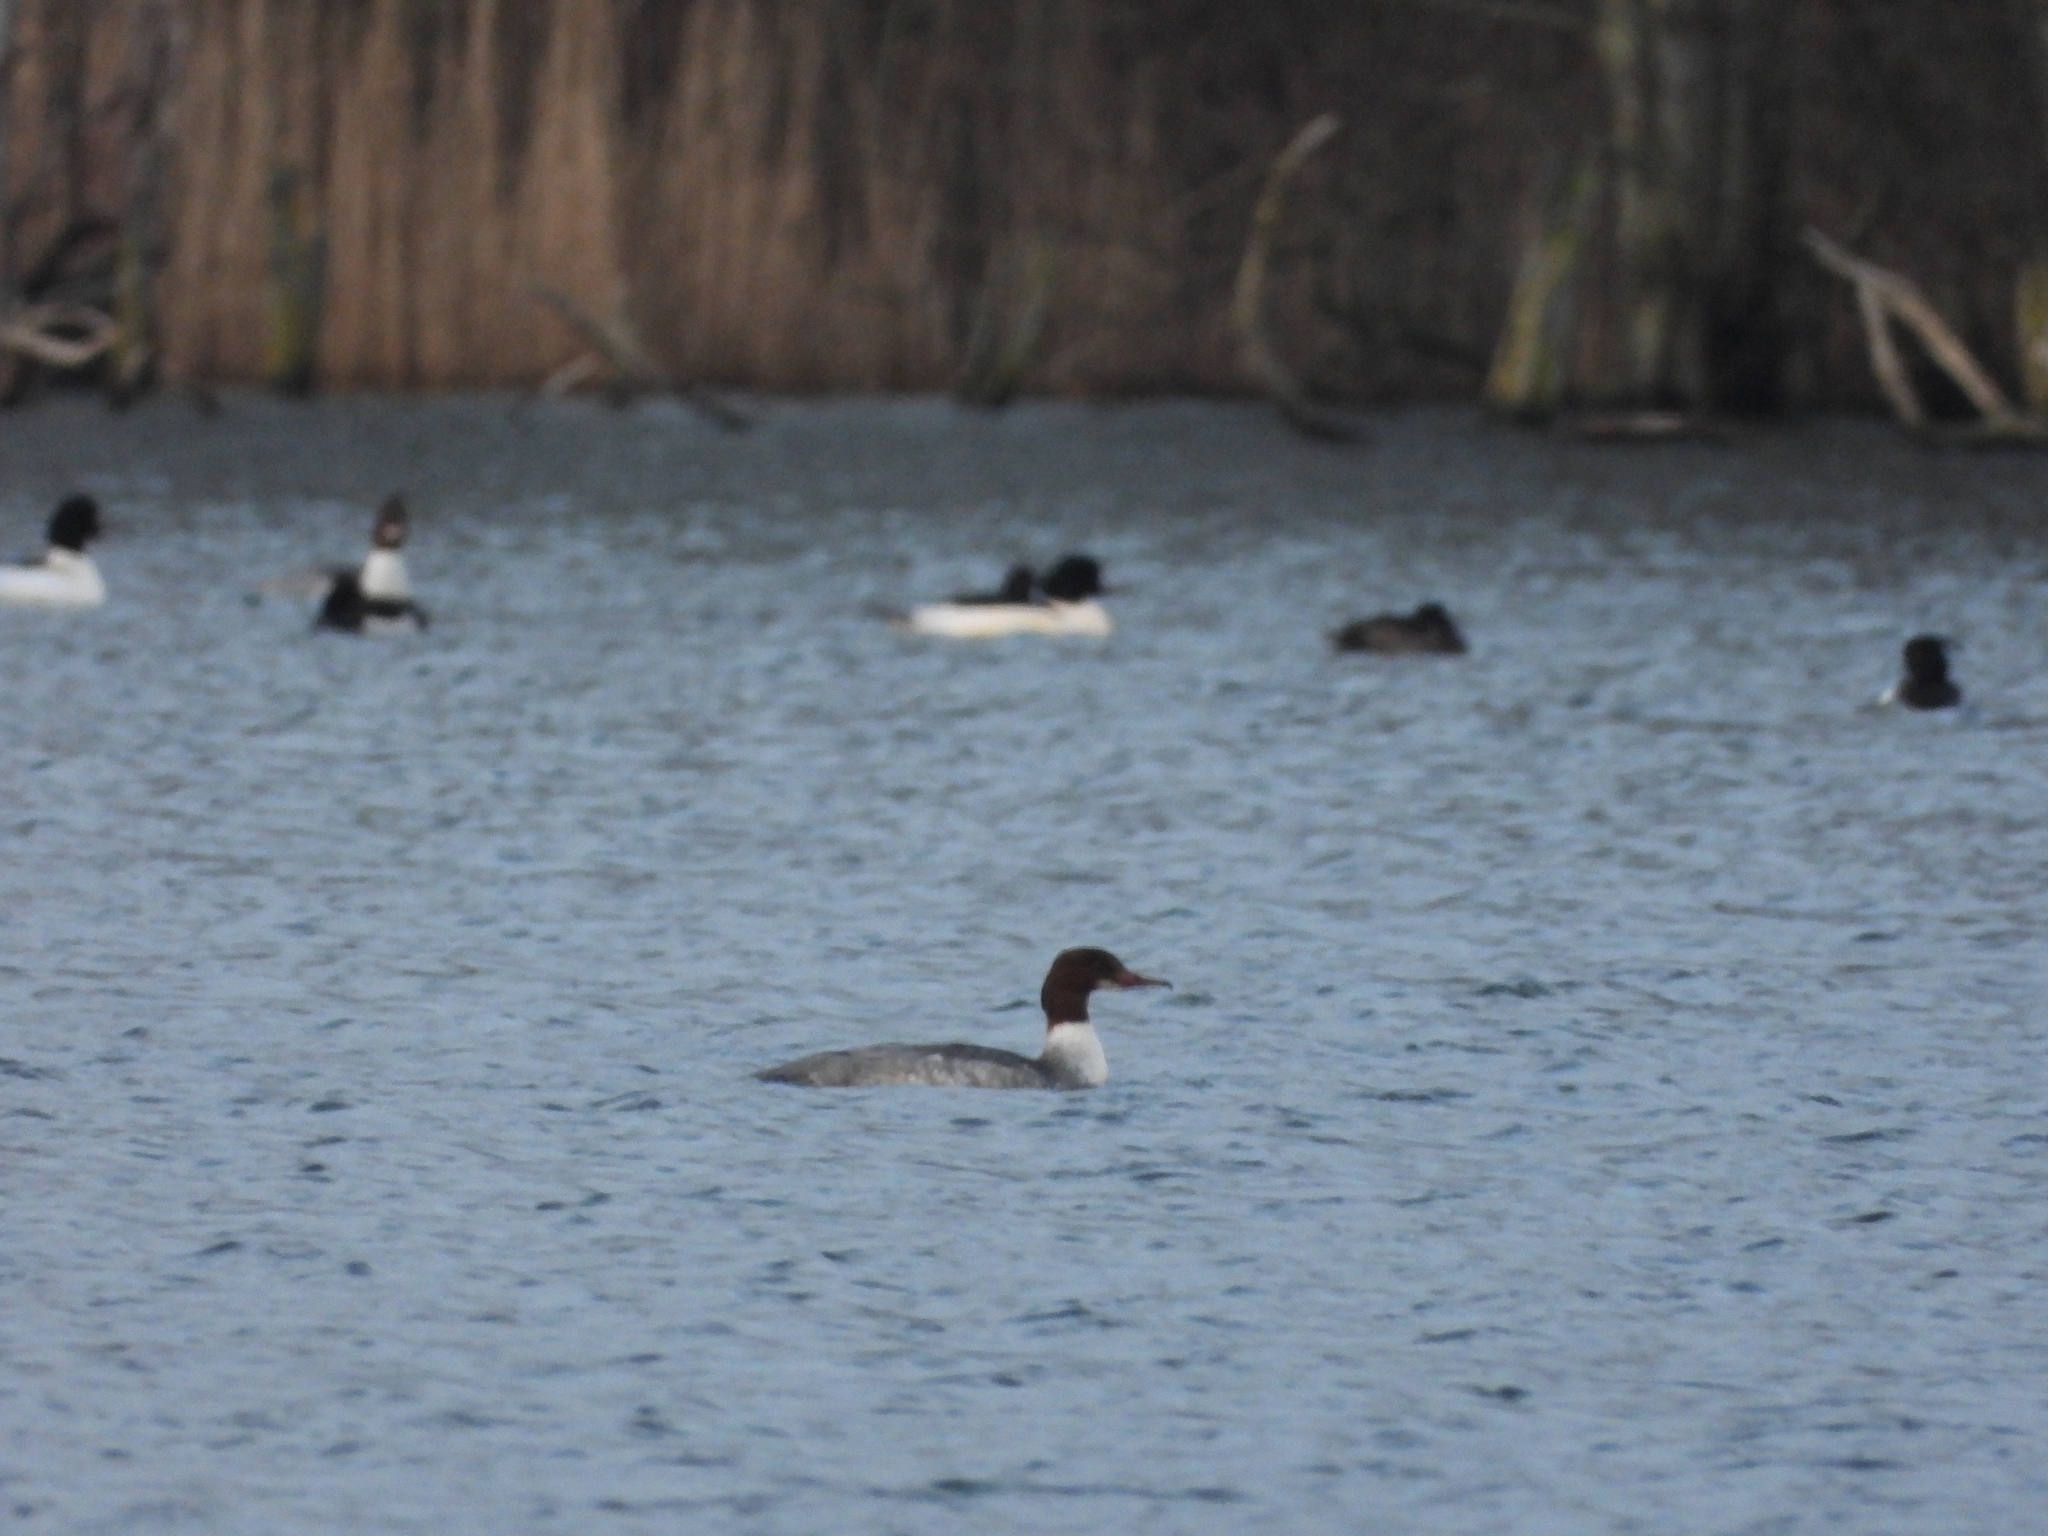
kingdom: Animalia
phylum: Chordata
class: Aves
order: Anseriformes
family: Anatidae
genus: Mergus
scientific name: Mergus merganser
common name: Common merganser
